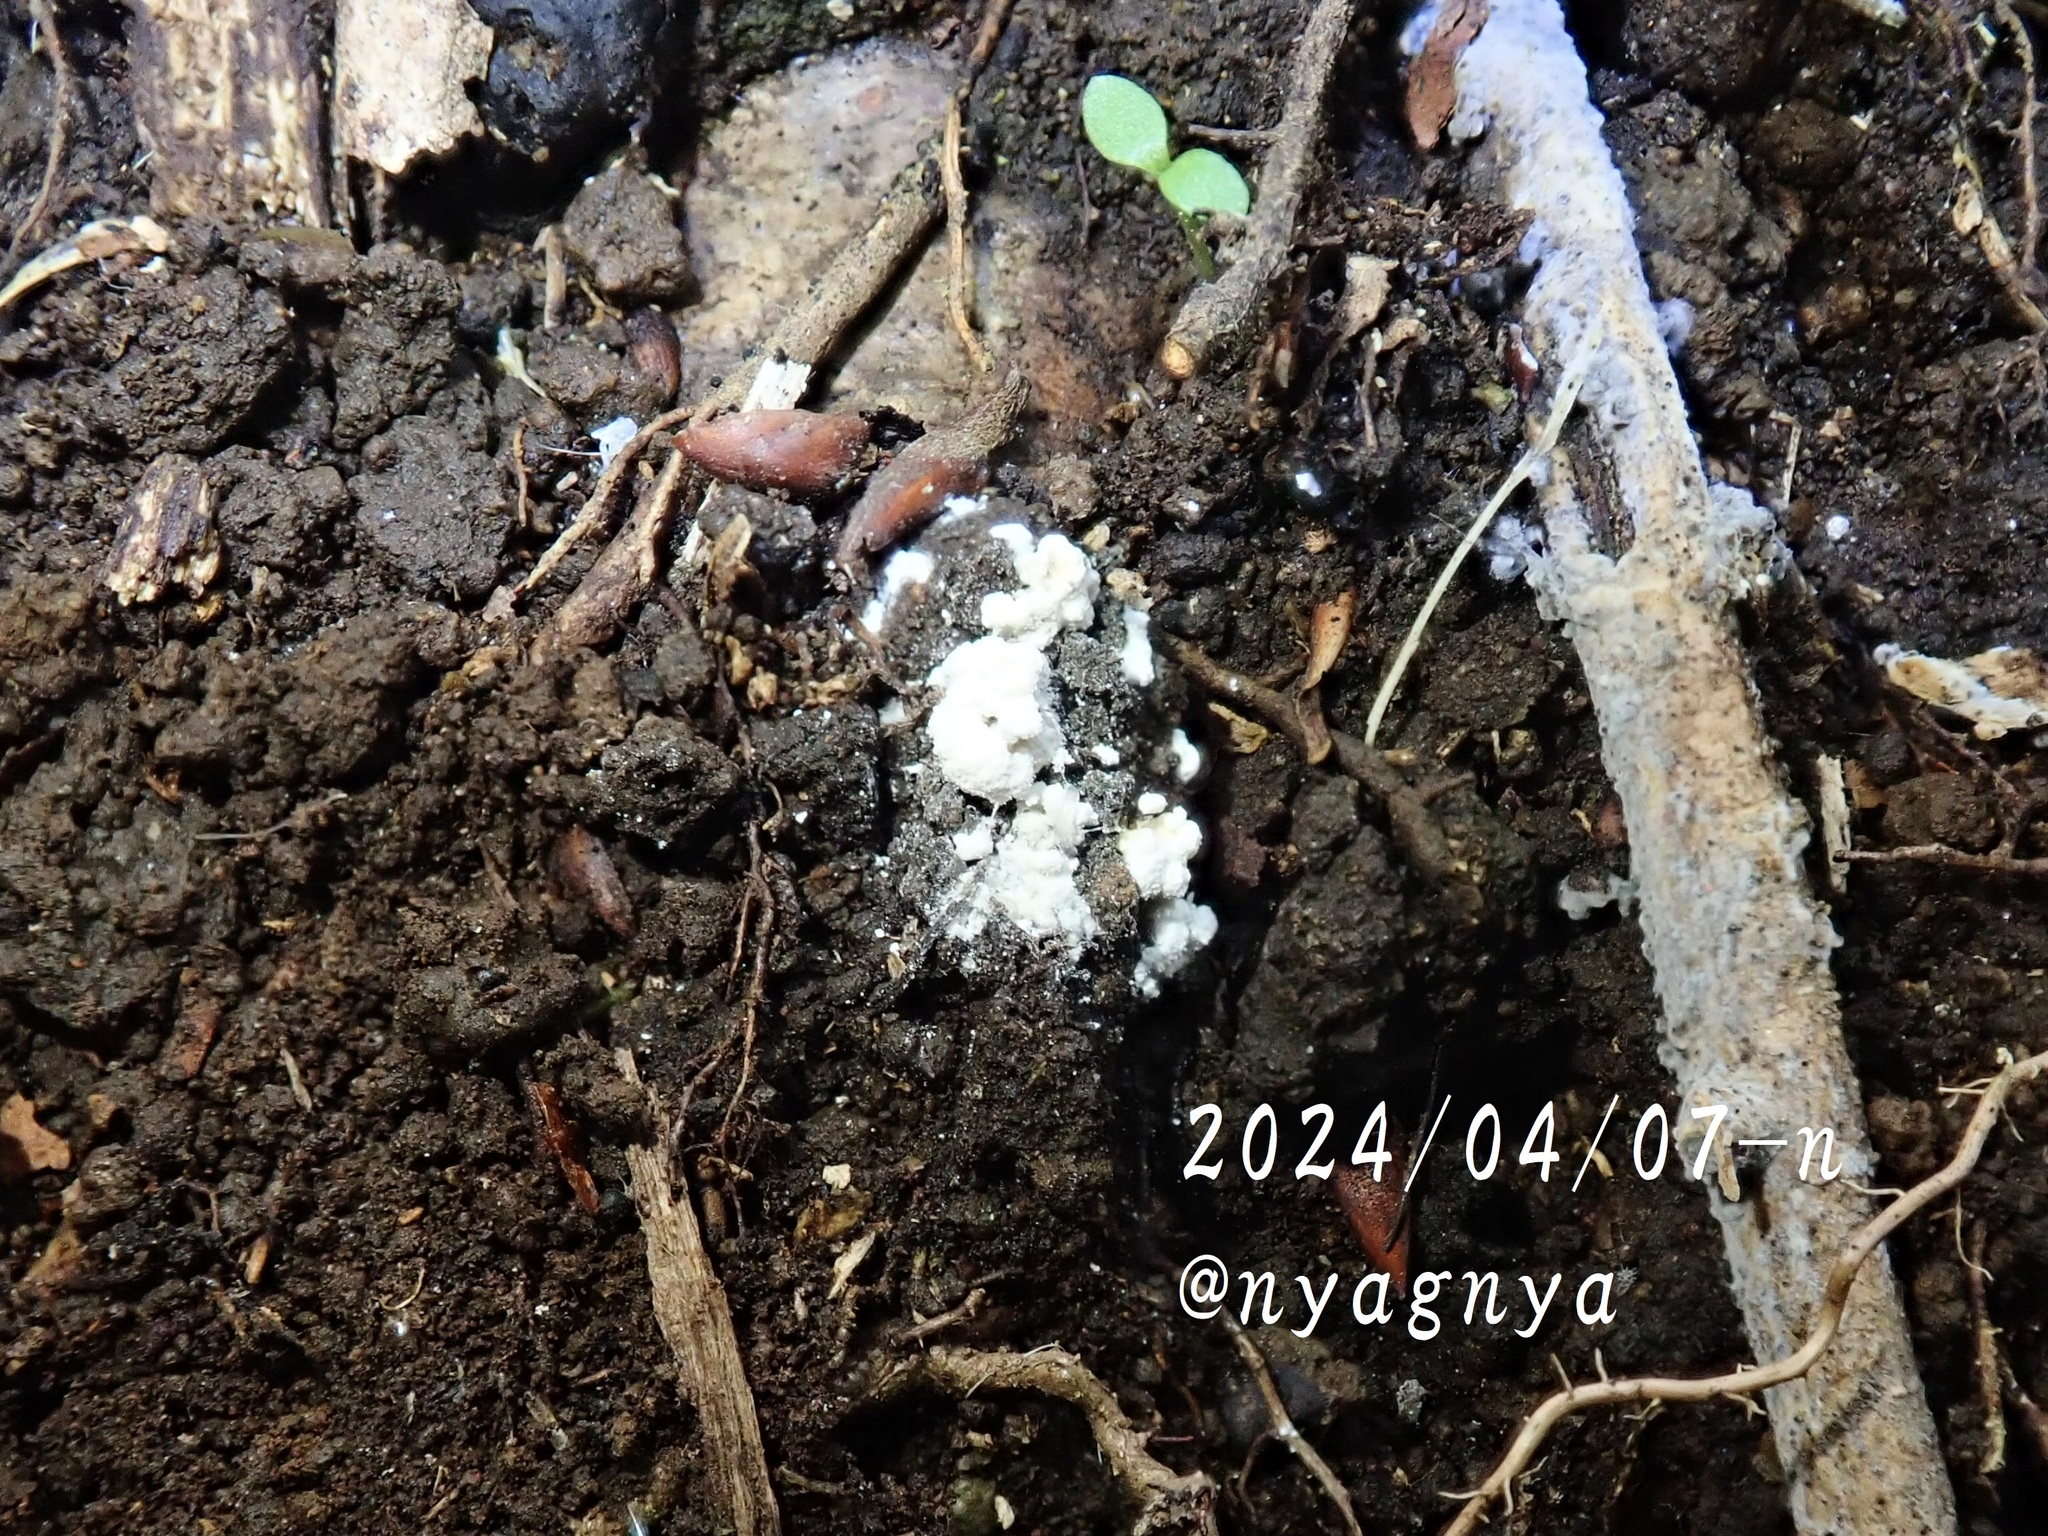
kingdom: Fungi
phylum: Ascomycota
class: Sordariomycetes
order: Hypocreales
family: Cordycipitaceae
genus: Cordyceps
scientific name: Cordyceps farinosa
